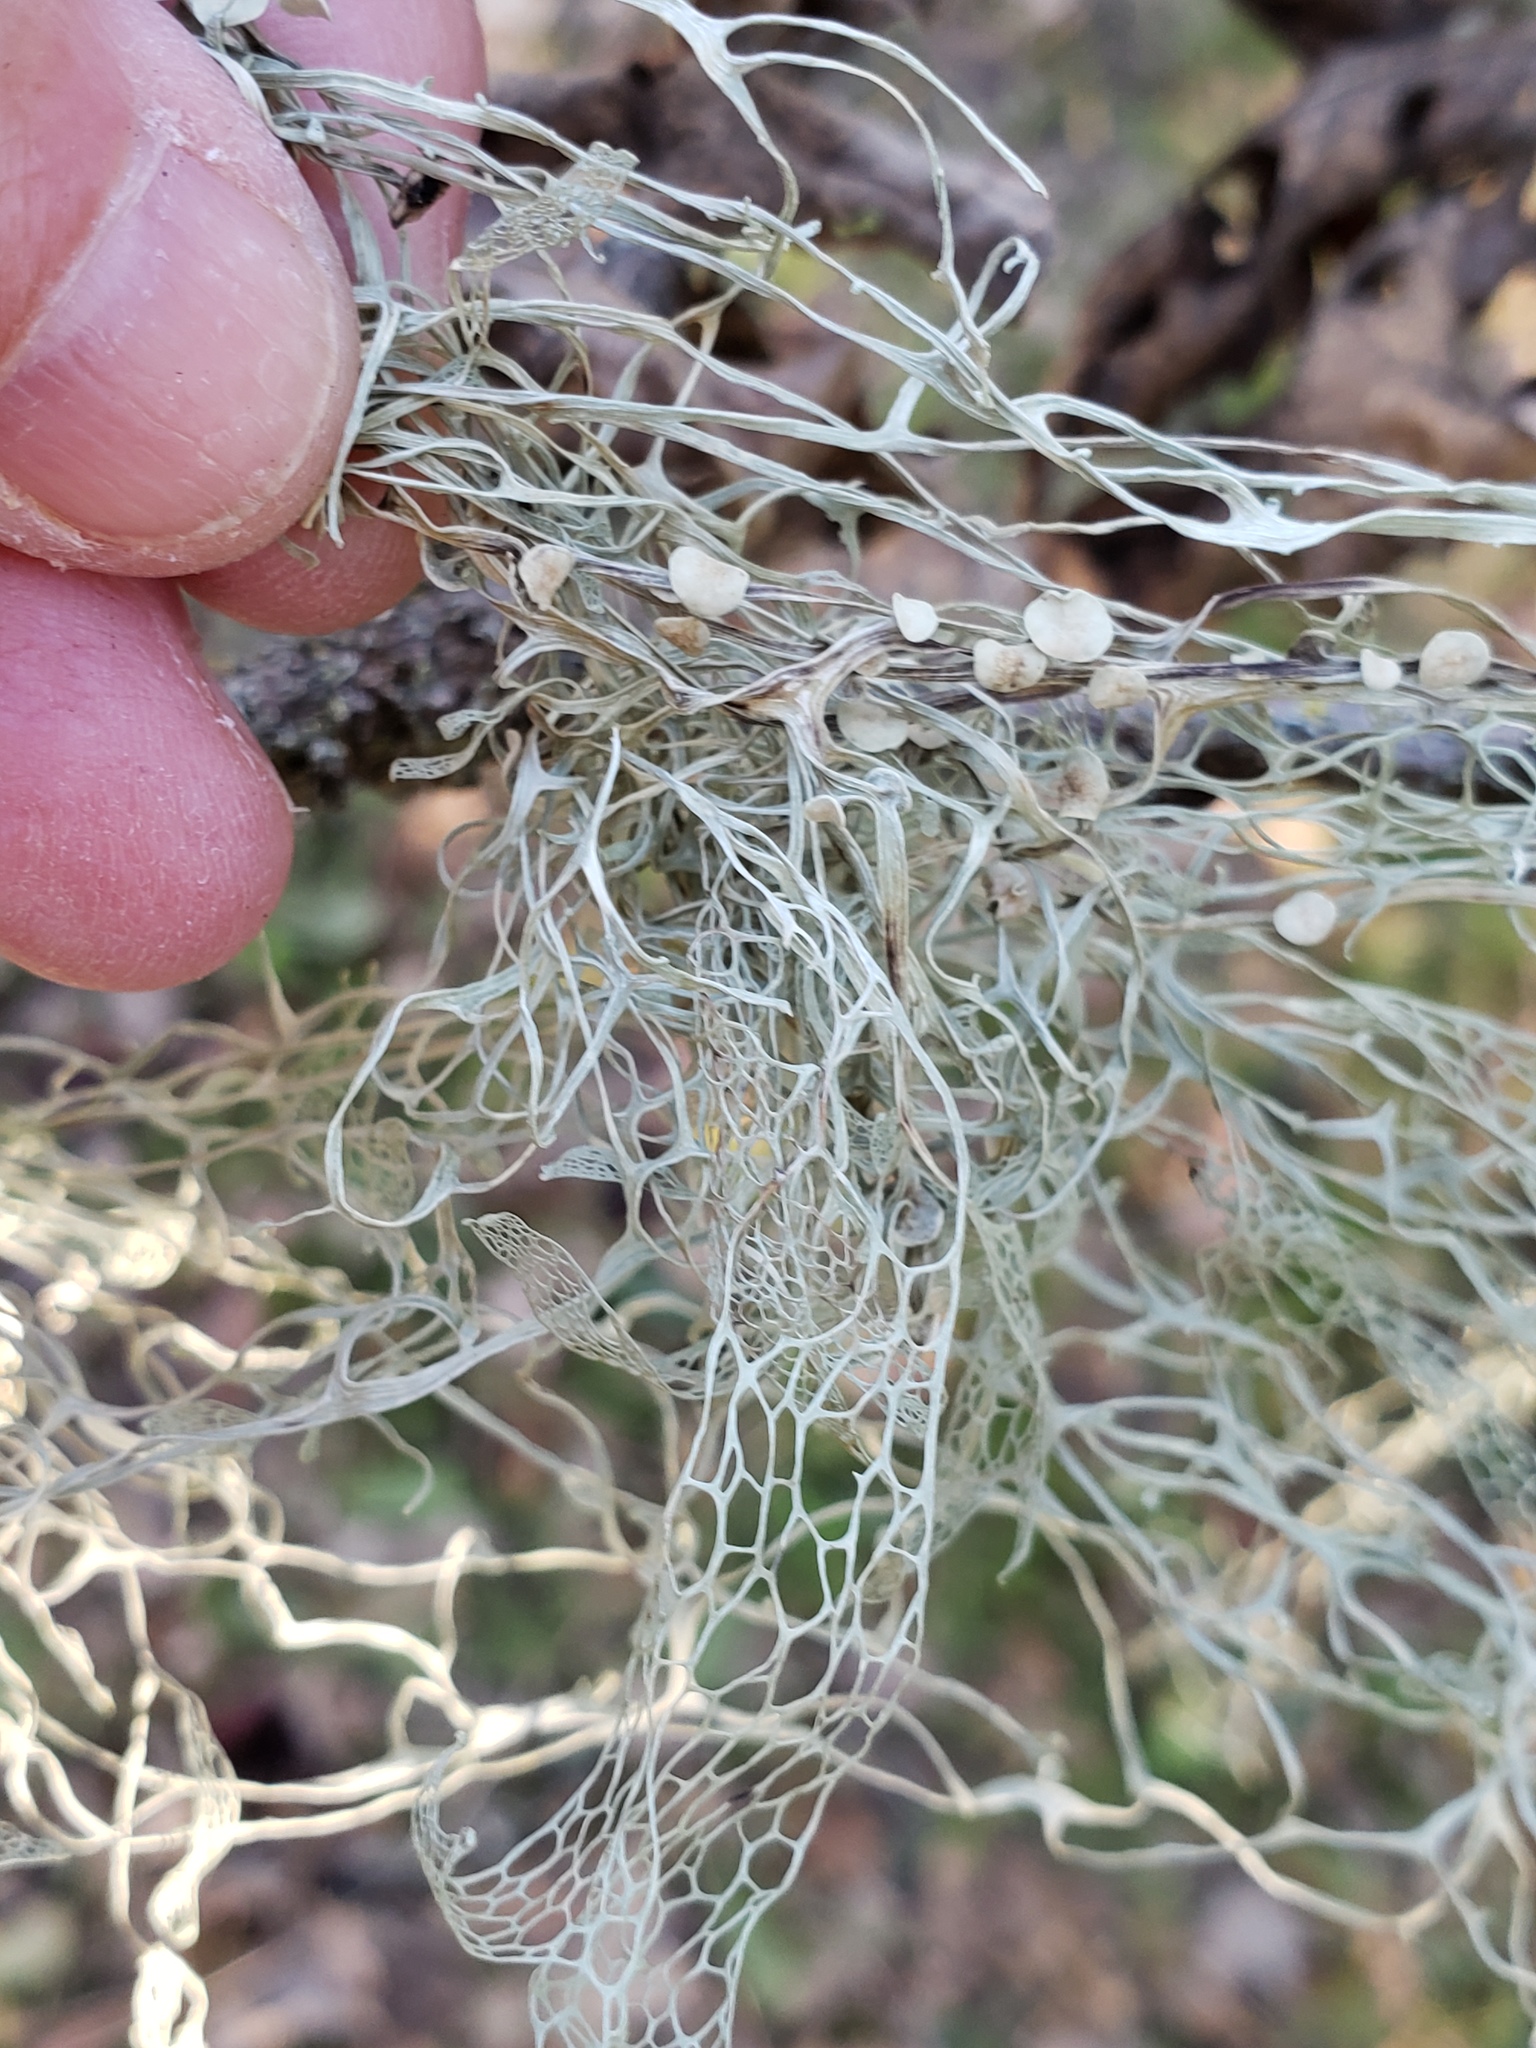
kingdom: Fungi
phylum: Ascomycota
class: Lecanoromycetes
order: Lecanorales
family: Ramalinaceae
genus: Ramalina
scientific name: Ramalina menziesii
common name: Lace lichen
